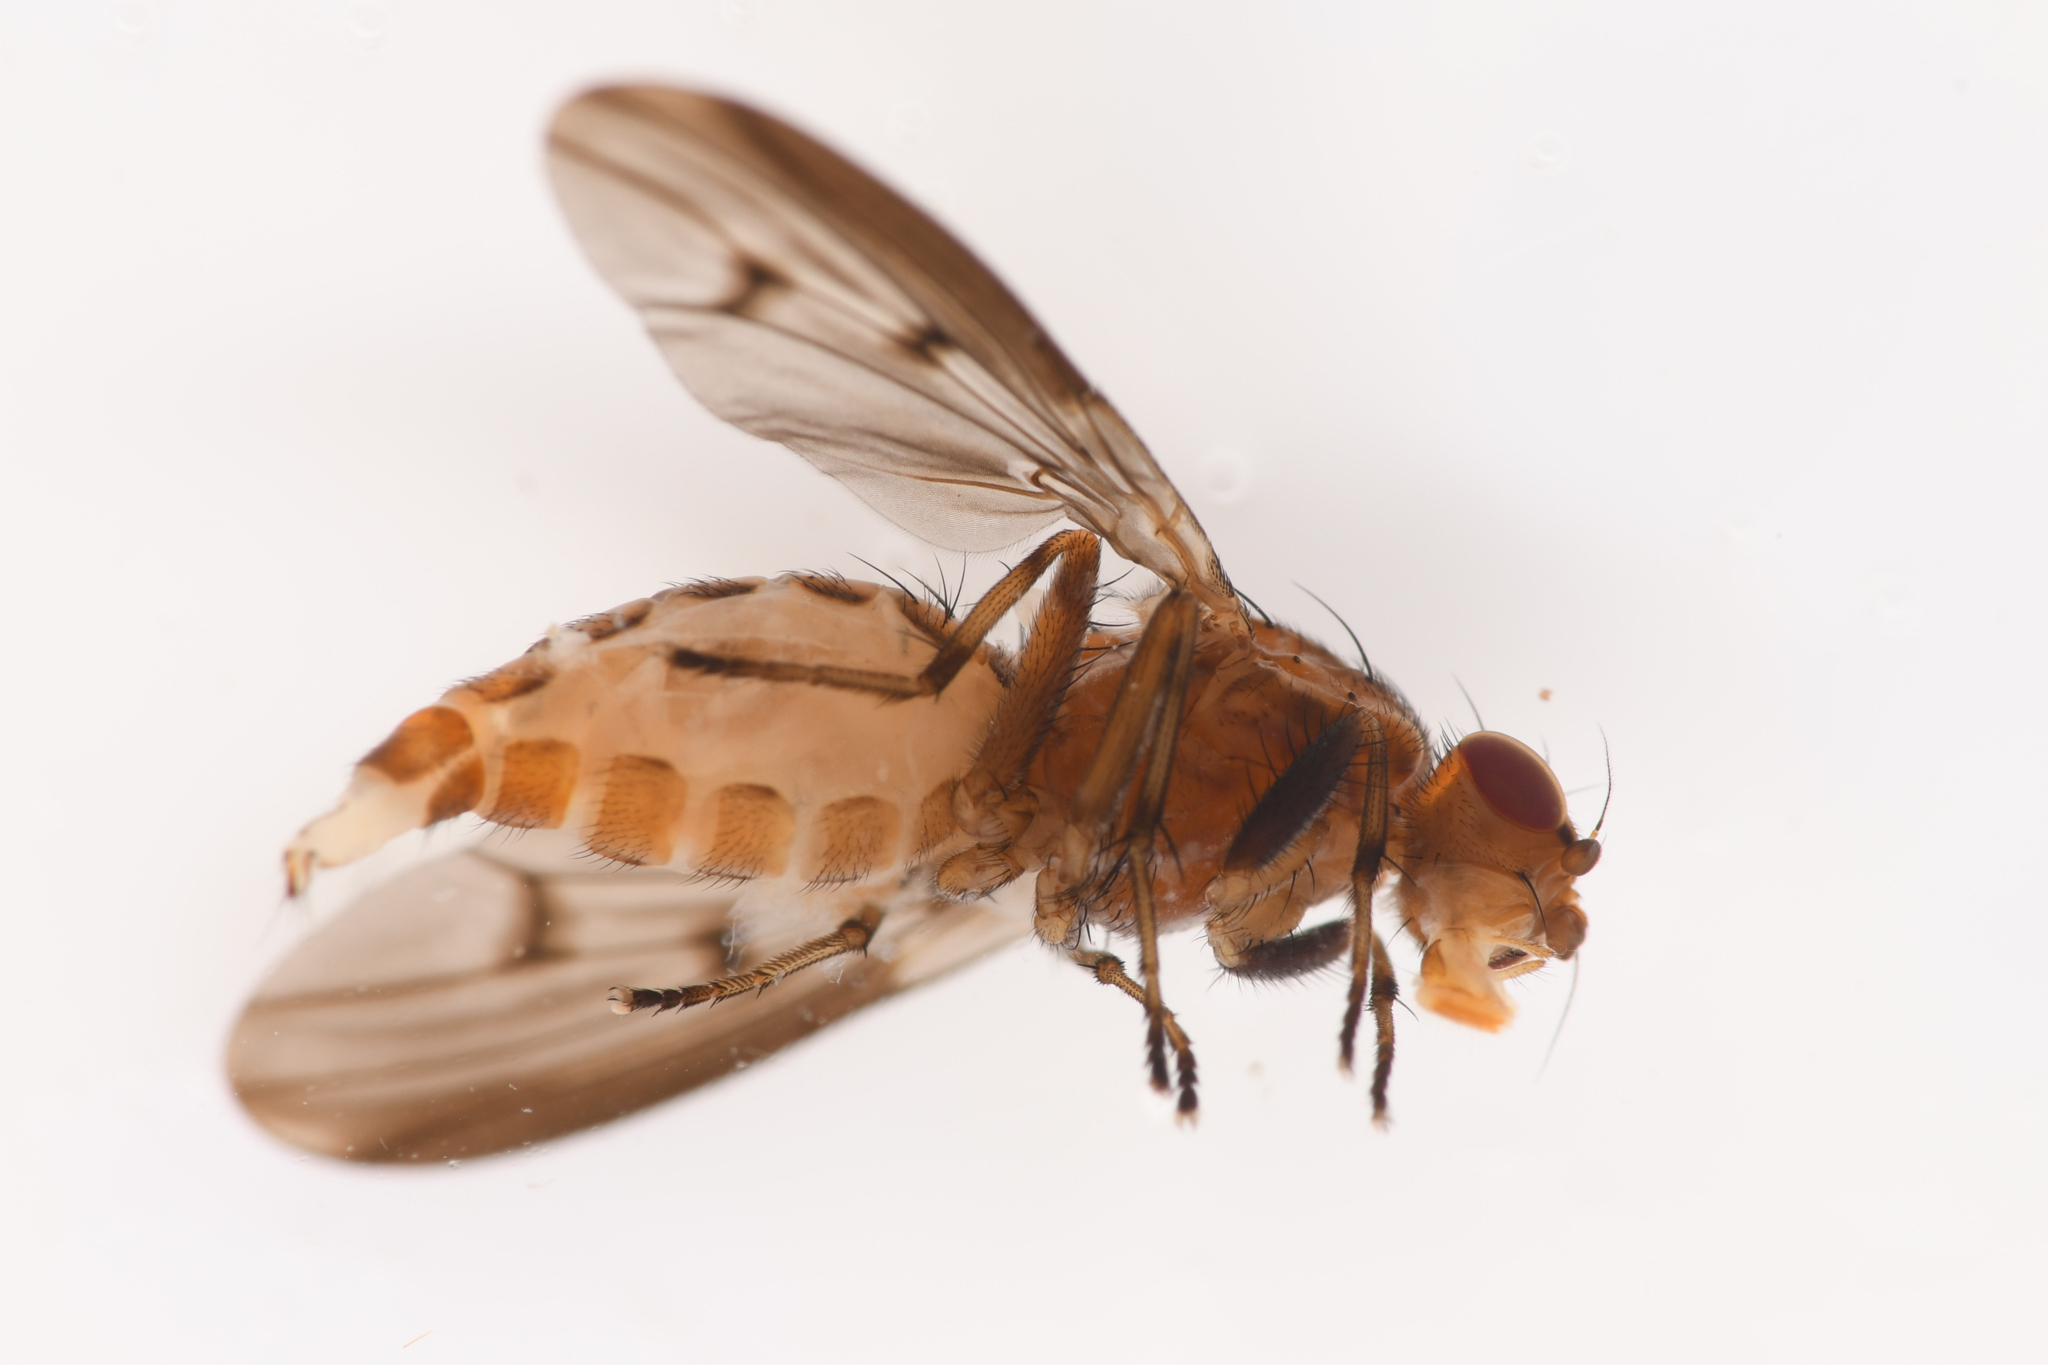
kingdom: Animalia
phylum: Arthropoda
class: Insecta
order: Diptera
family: Heleomyzidae
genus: Suillia
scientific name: Suillia barberi
